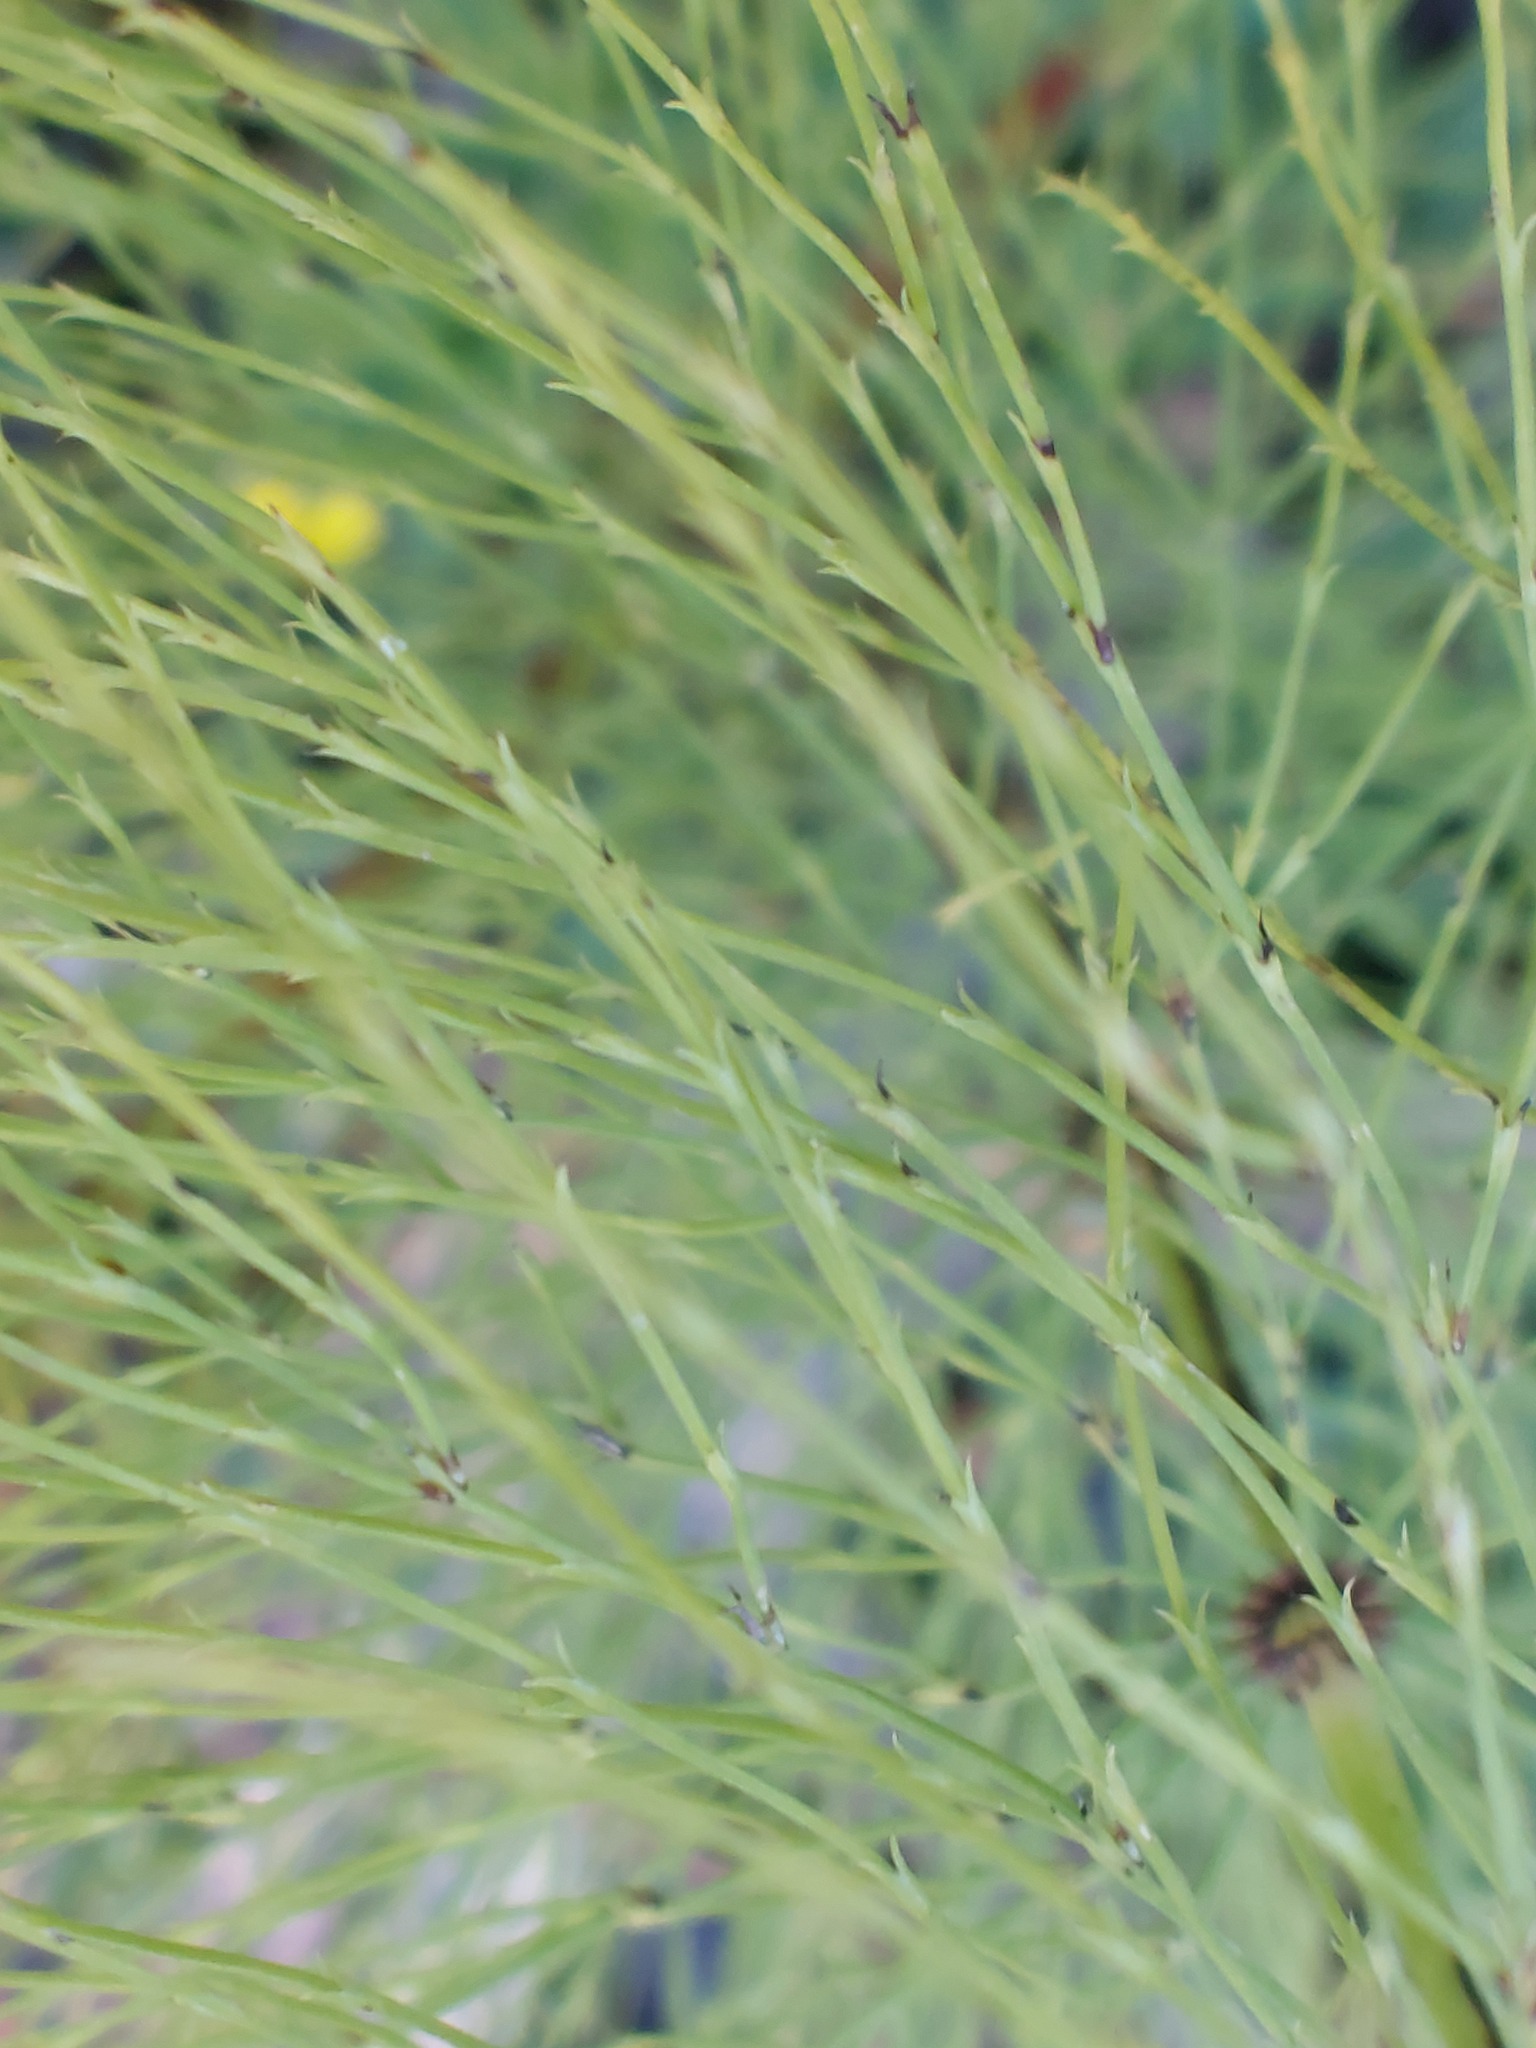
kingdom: Plantae
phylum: Tracheophyta
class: Polypodiopsida
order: Equisetales
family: Equisetaceae
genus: Equisetum
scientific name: Equisetum sylvaticum
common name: Wood horsetail
